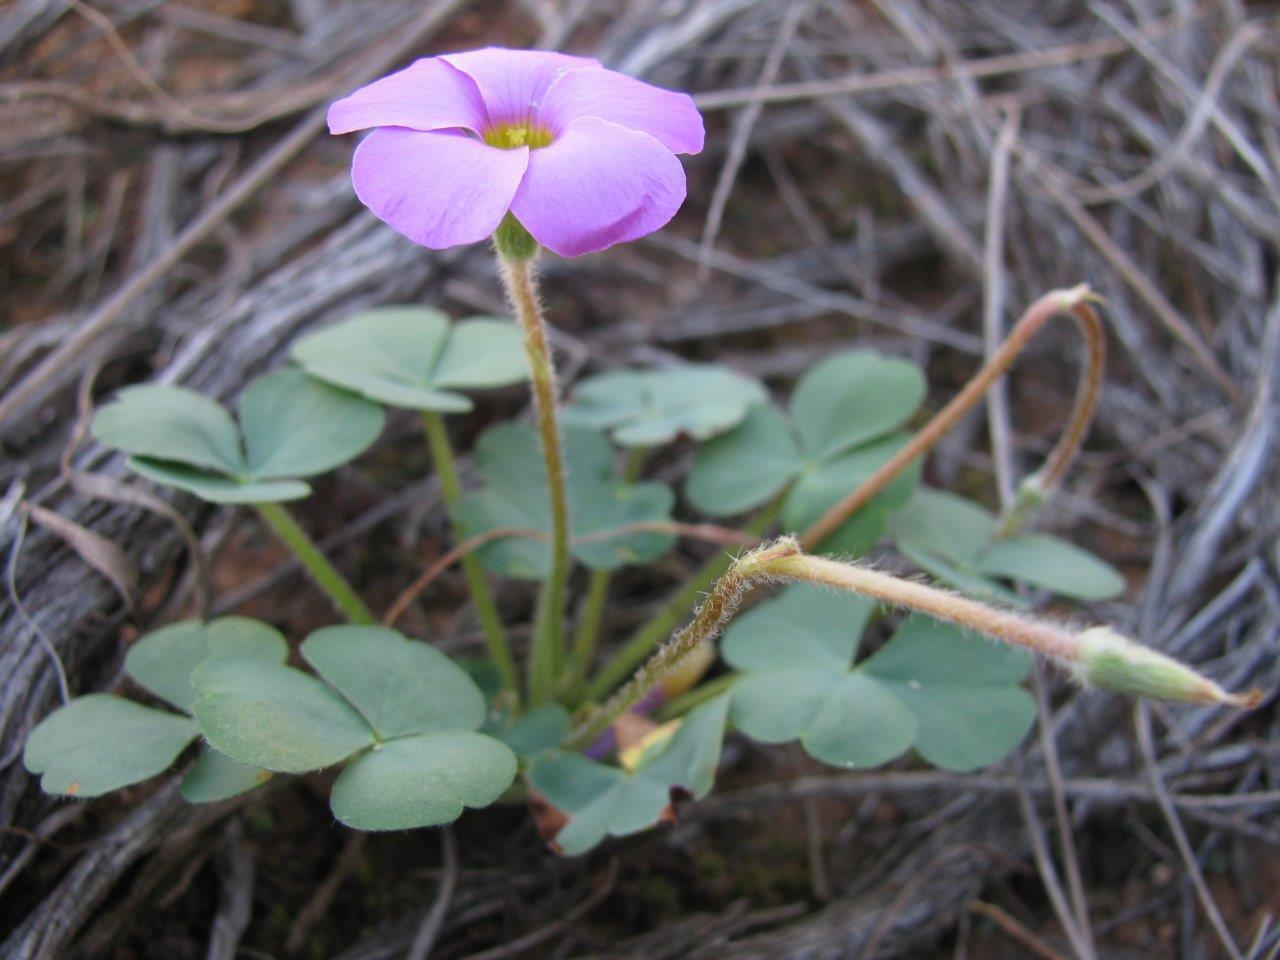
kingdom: Plantae
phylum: Tracheophyta
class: Magnoliopsida
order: Oxalidales
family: Oxalidaceae
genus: Oxalis
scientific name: Oxalis imbricata
